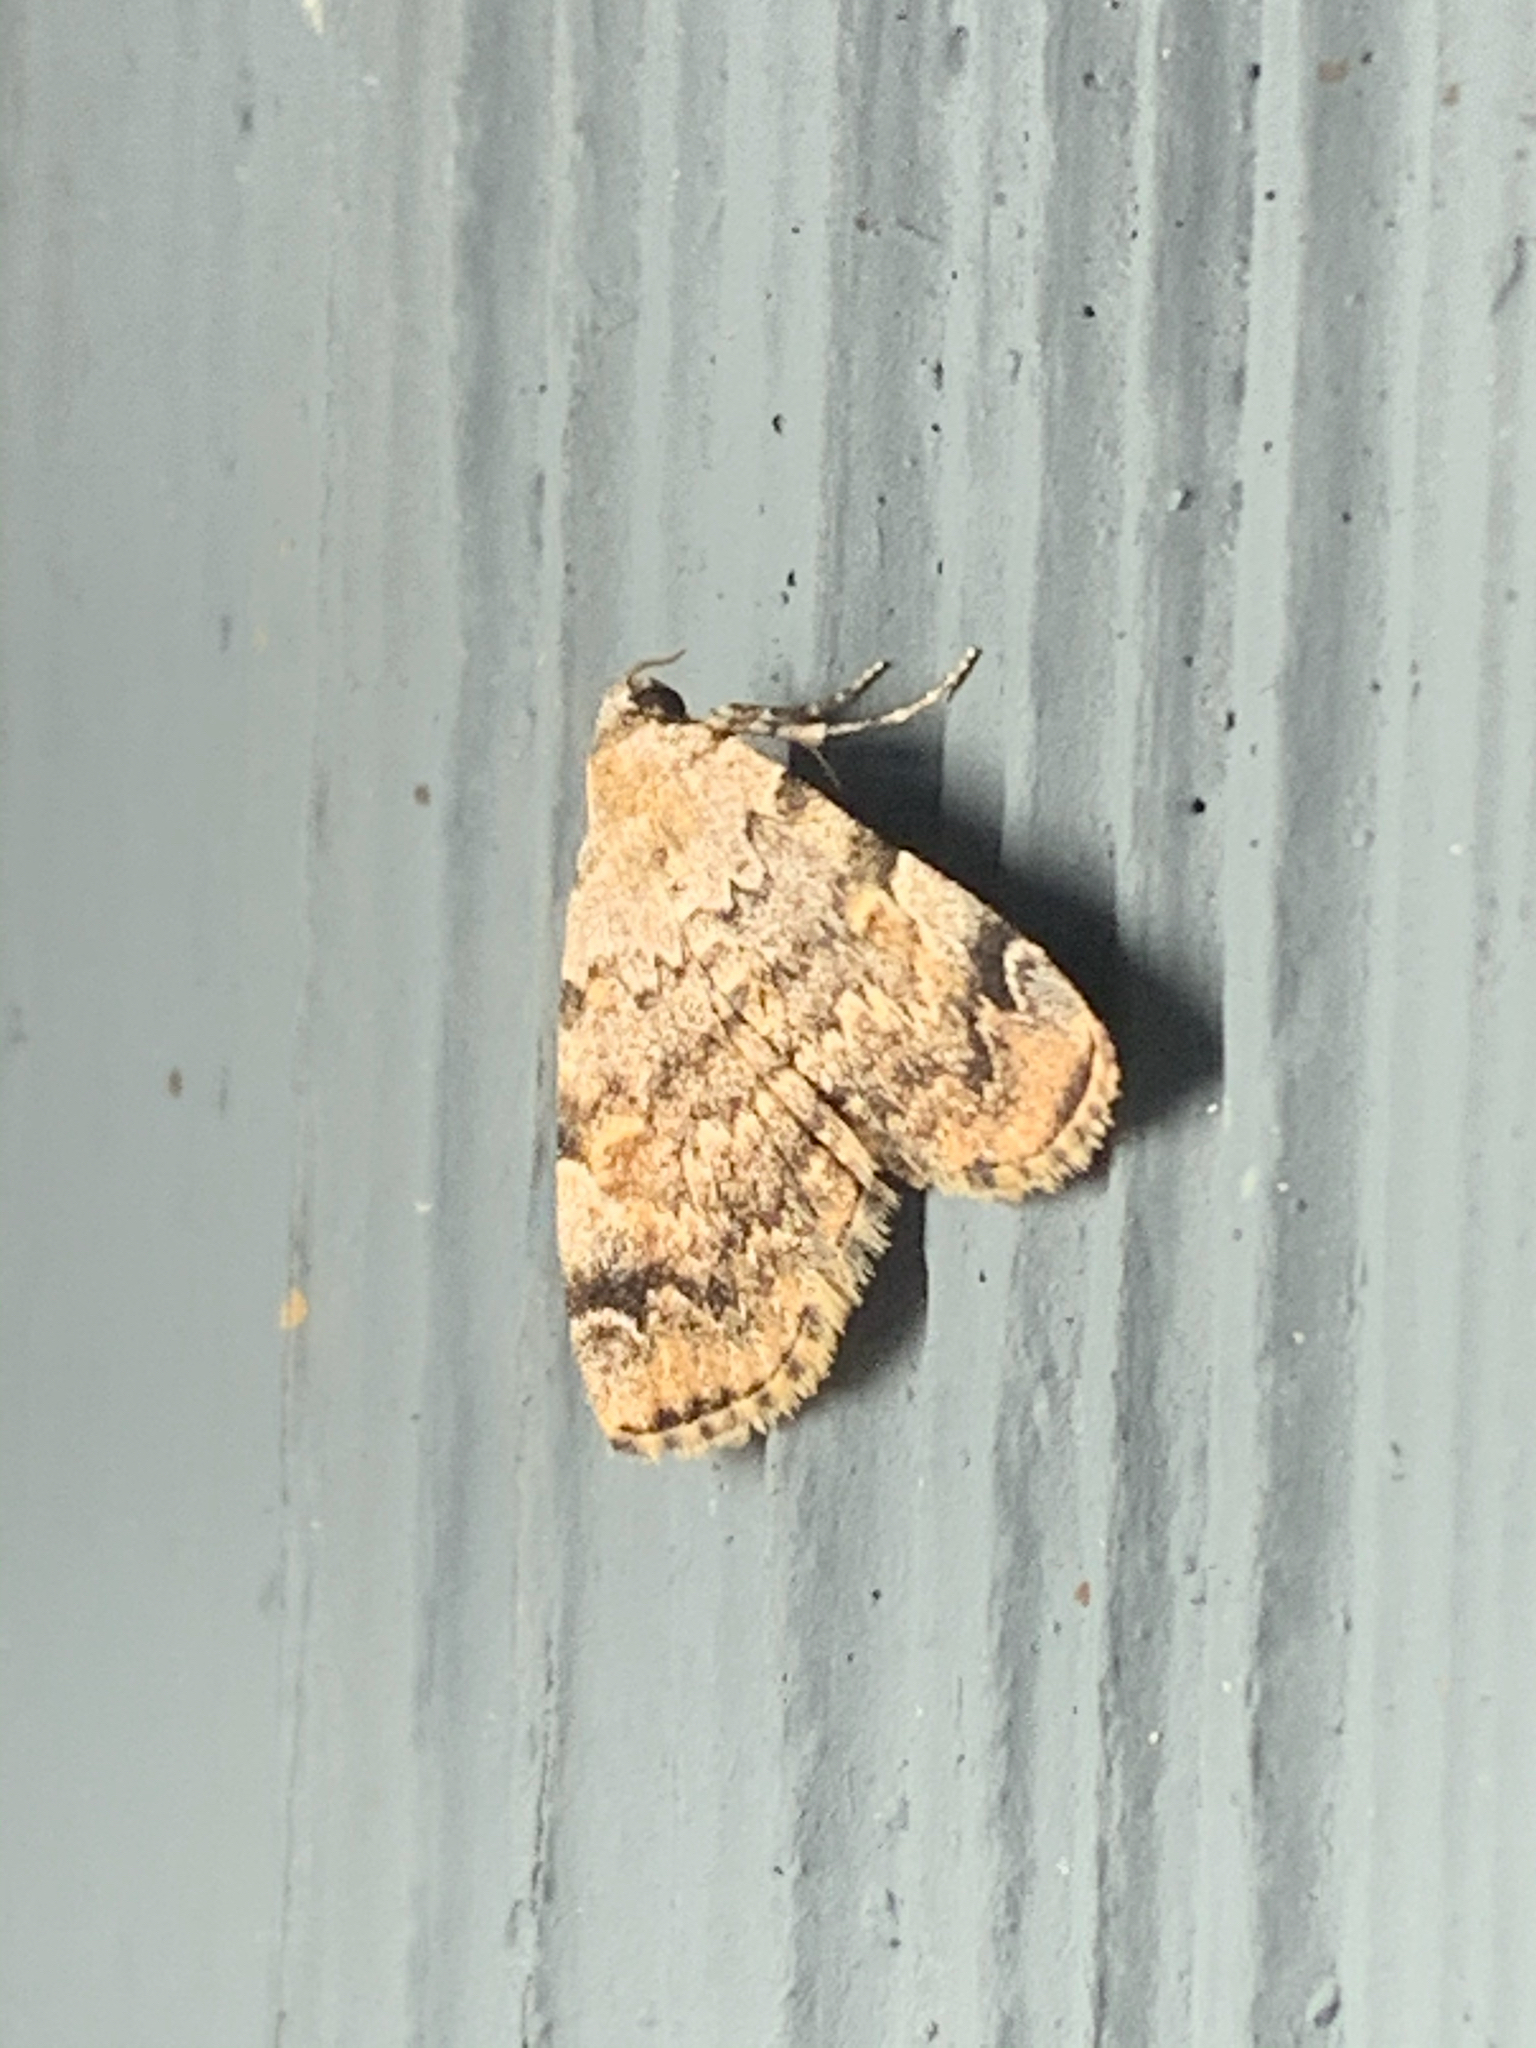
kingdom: Animalia
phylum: Arthropoda
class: Insecta
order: Lepidoptera
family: Erebidae
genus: Idia
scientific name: Idia americalis
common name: American idia moth
